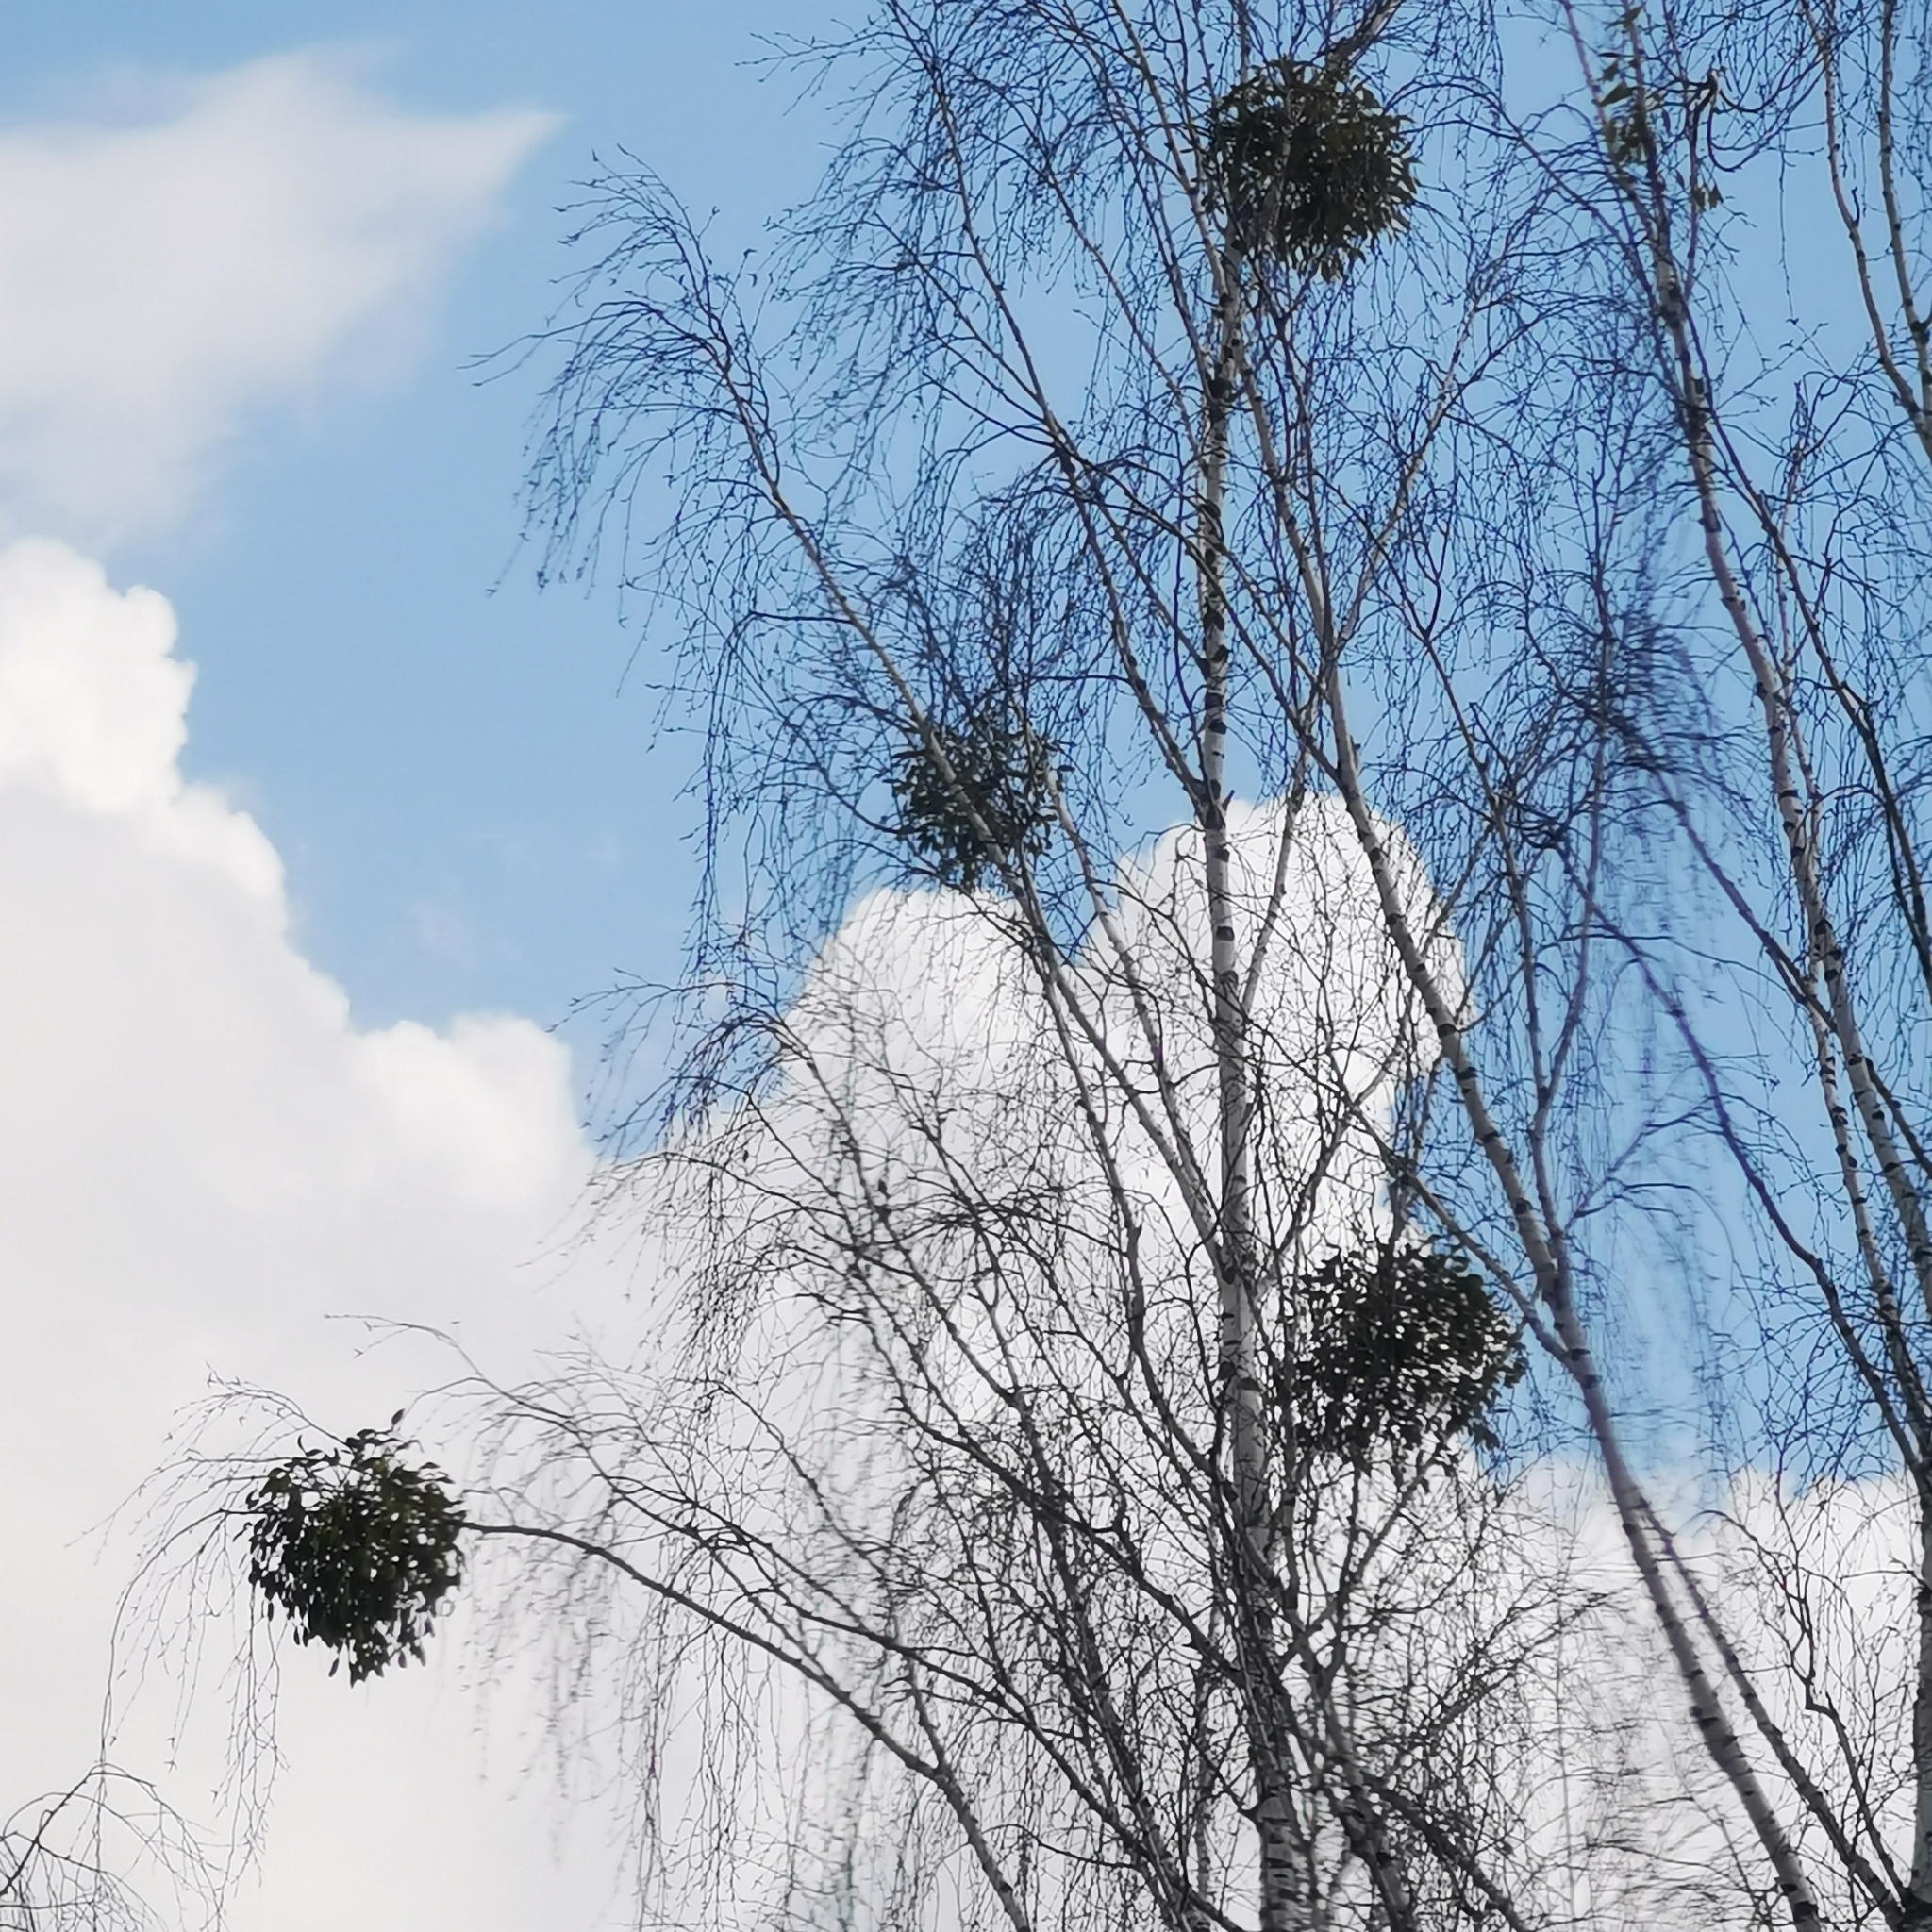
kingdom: Plantae
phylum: Tracheophyta
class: Magnoliopsida
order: Santalales
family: Viscaceae
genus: Viscum
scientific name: Viscum album
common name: Mistletoe
